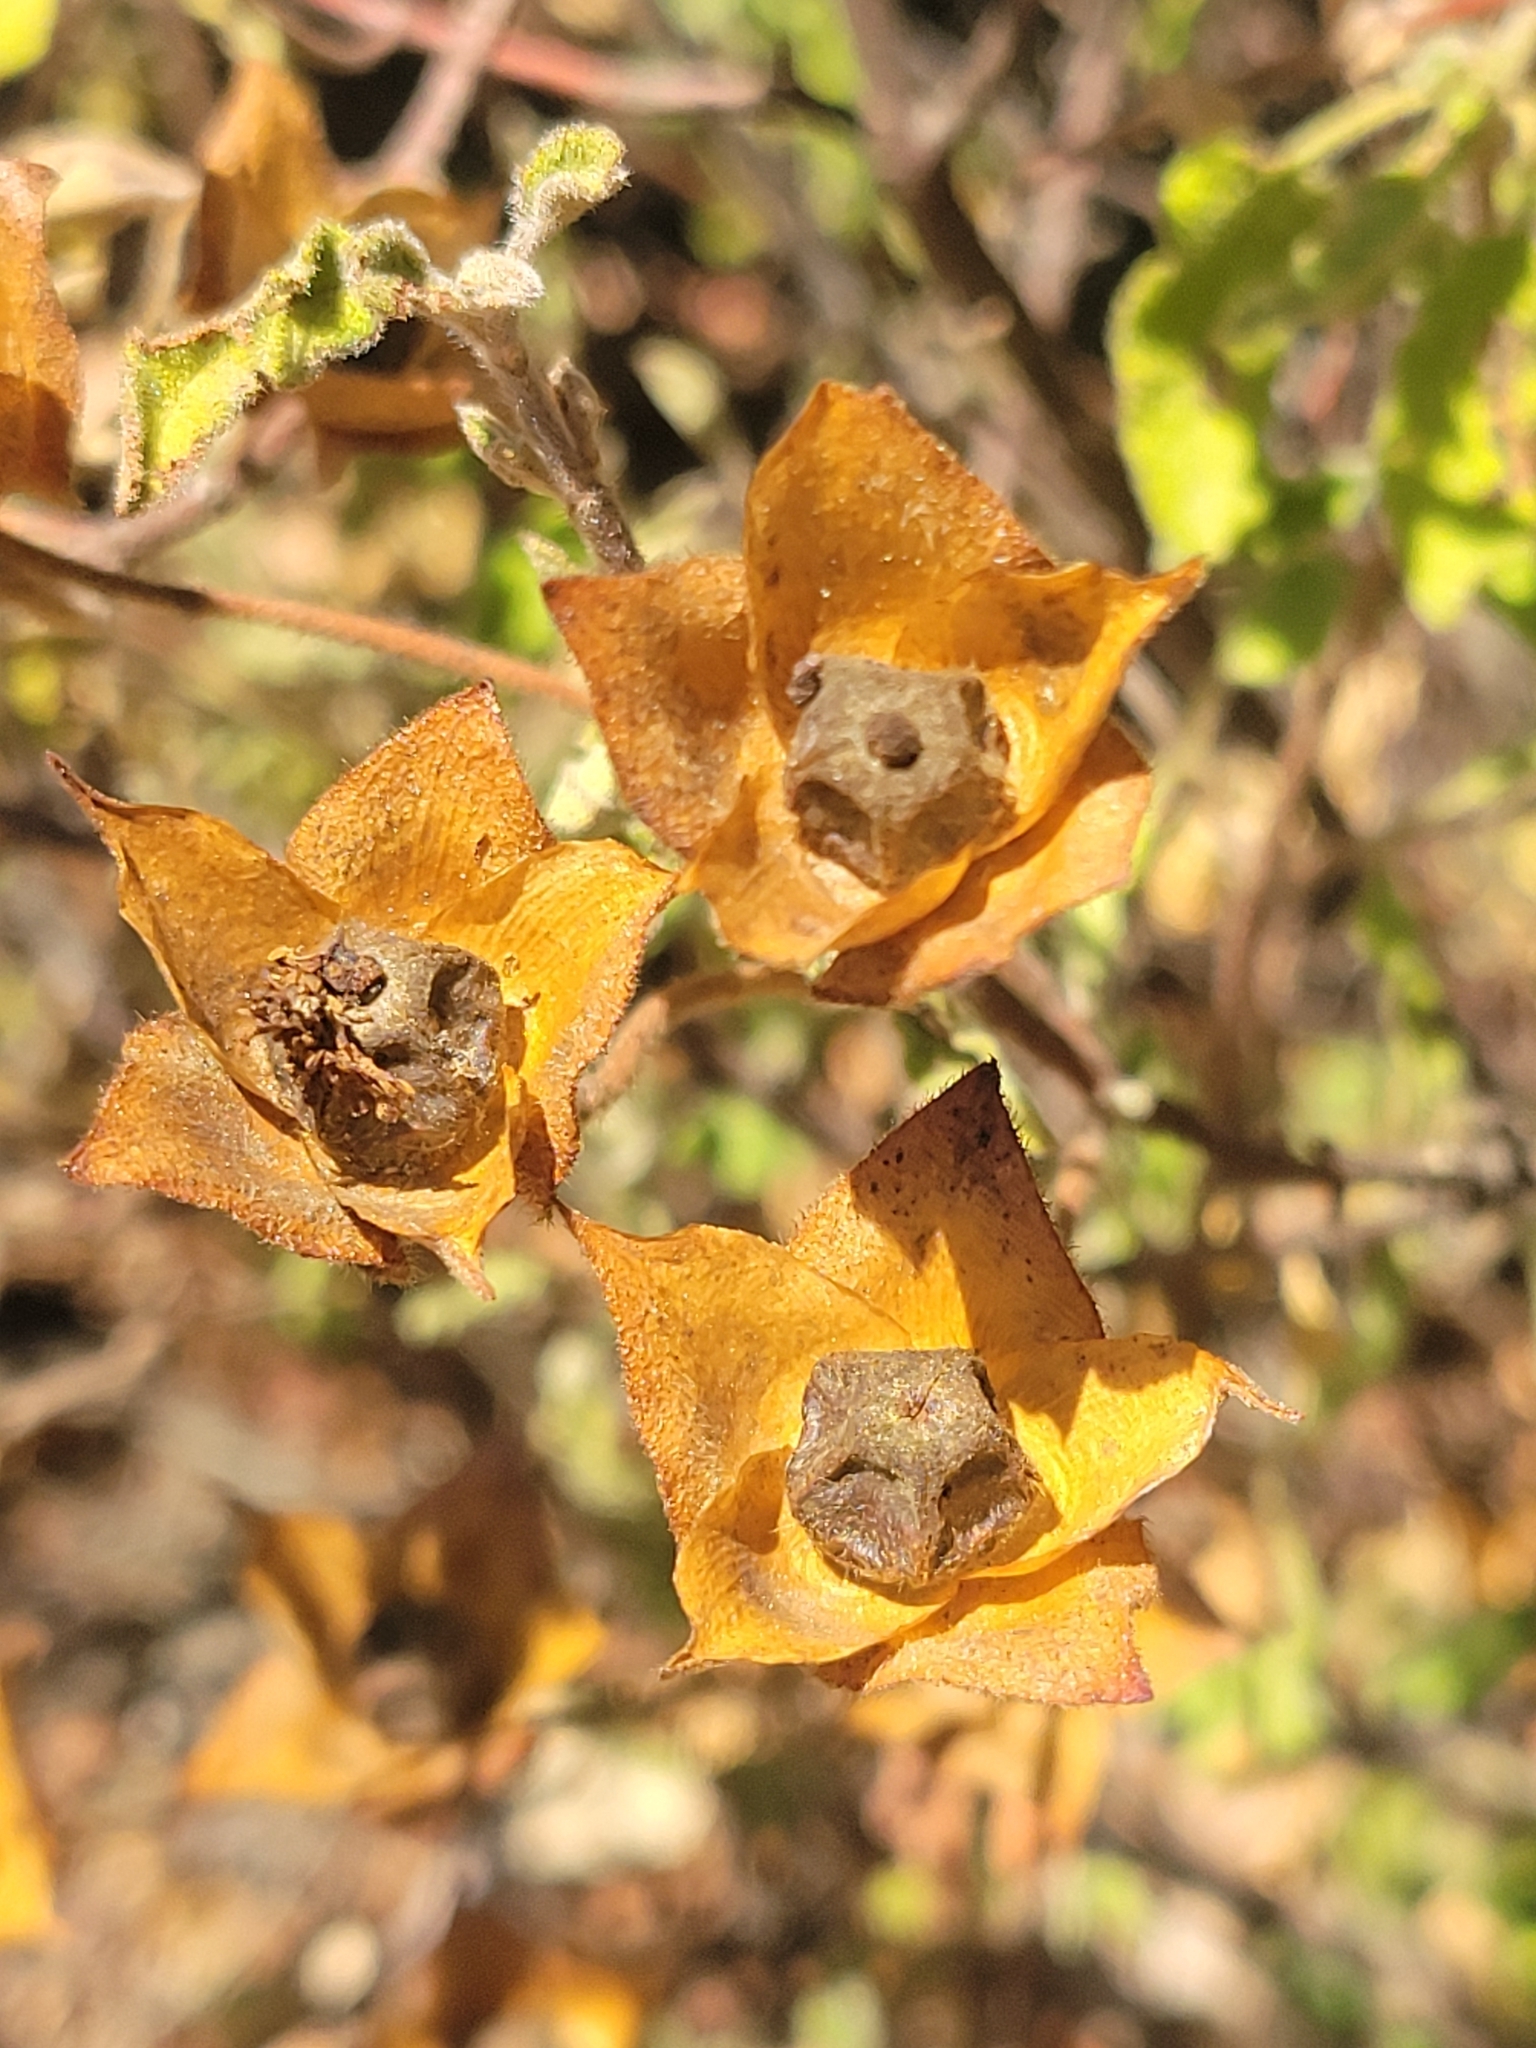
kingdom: Plantae
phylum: Tracheophyta
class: Magnoliopsida
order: Malvales
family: Cistaceae
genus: Cistus
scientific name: Cistus salviifolius
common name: Salvia cistus
